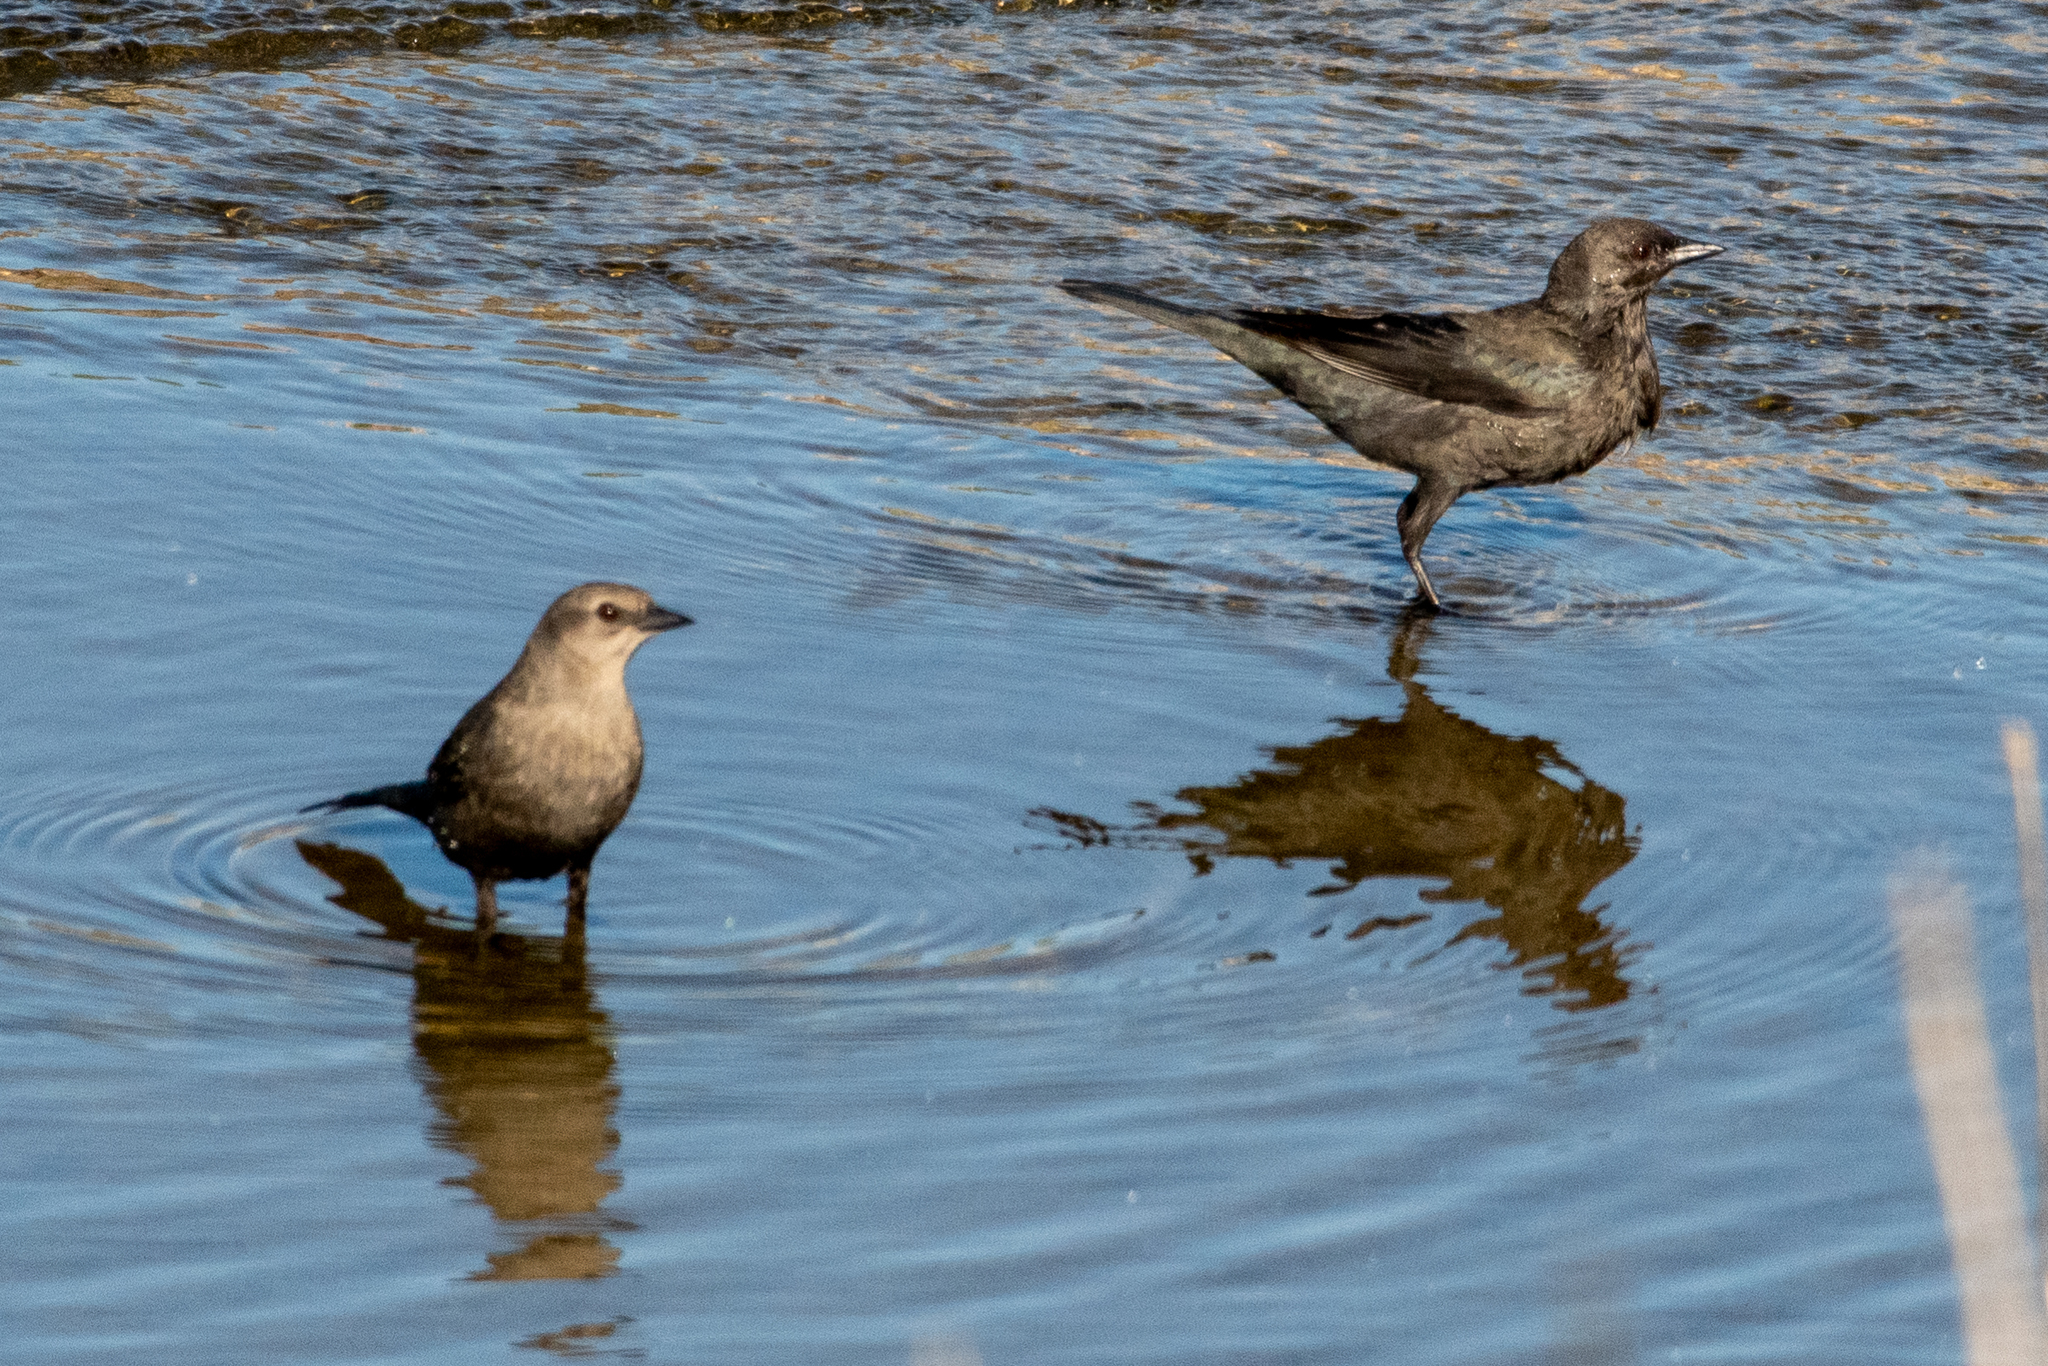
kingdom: Animalia
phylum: Chordata
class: Aves
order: Passeriformes
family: Icteridae
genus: Euphagus
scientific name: Euphagus cyanocephalus
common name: Brewer's blackbird
